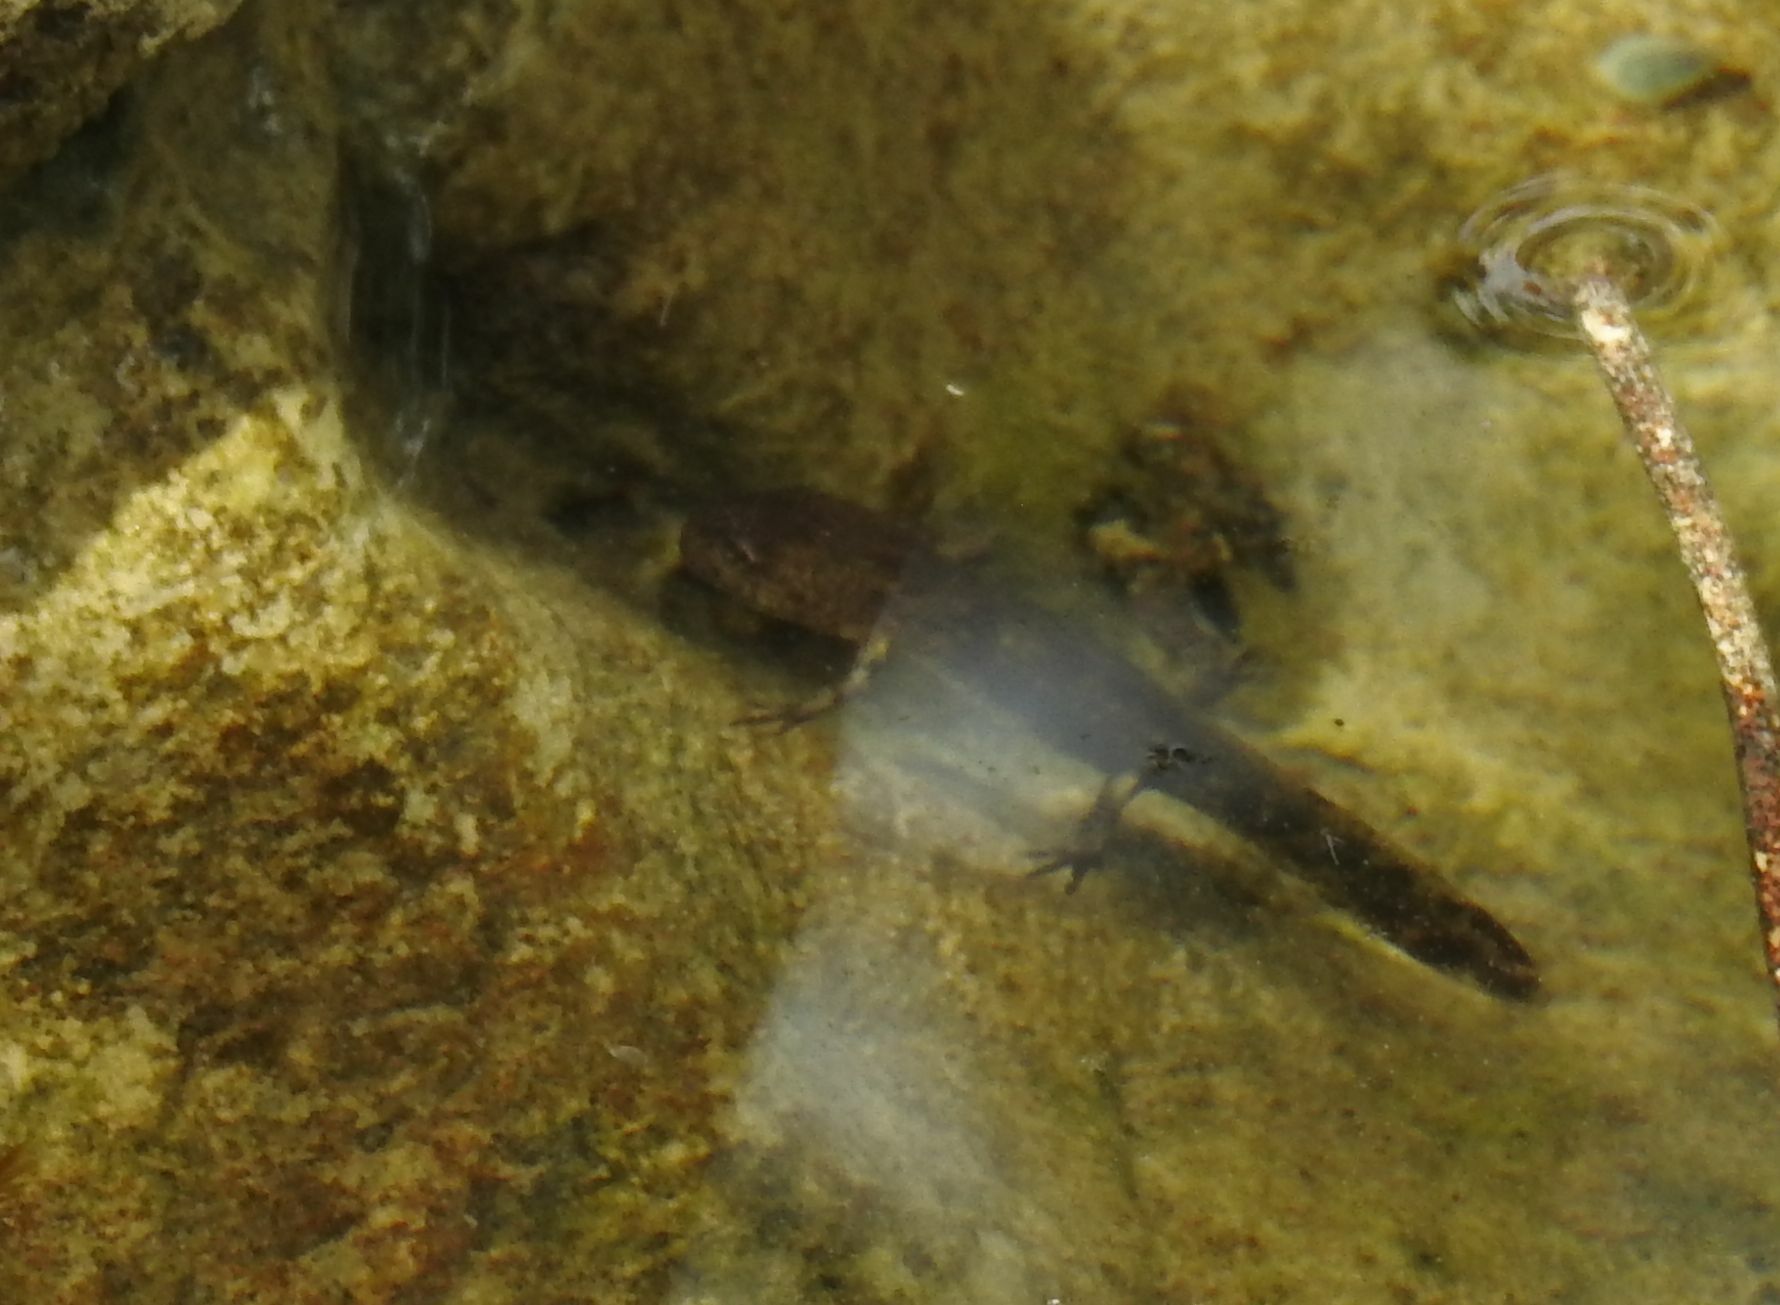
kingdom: Animalia
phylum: Chordata
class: Amphibia
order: Caudata
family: Salamandridae
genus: Salamandra
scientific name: Salamandra salamandra
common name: Fire salamander
